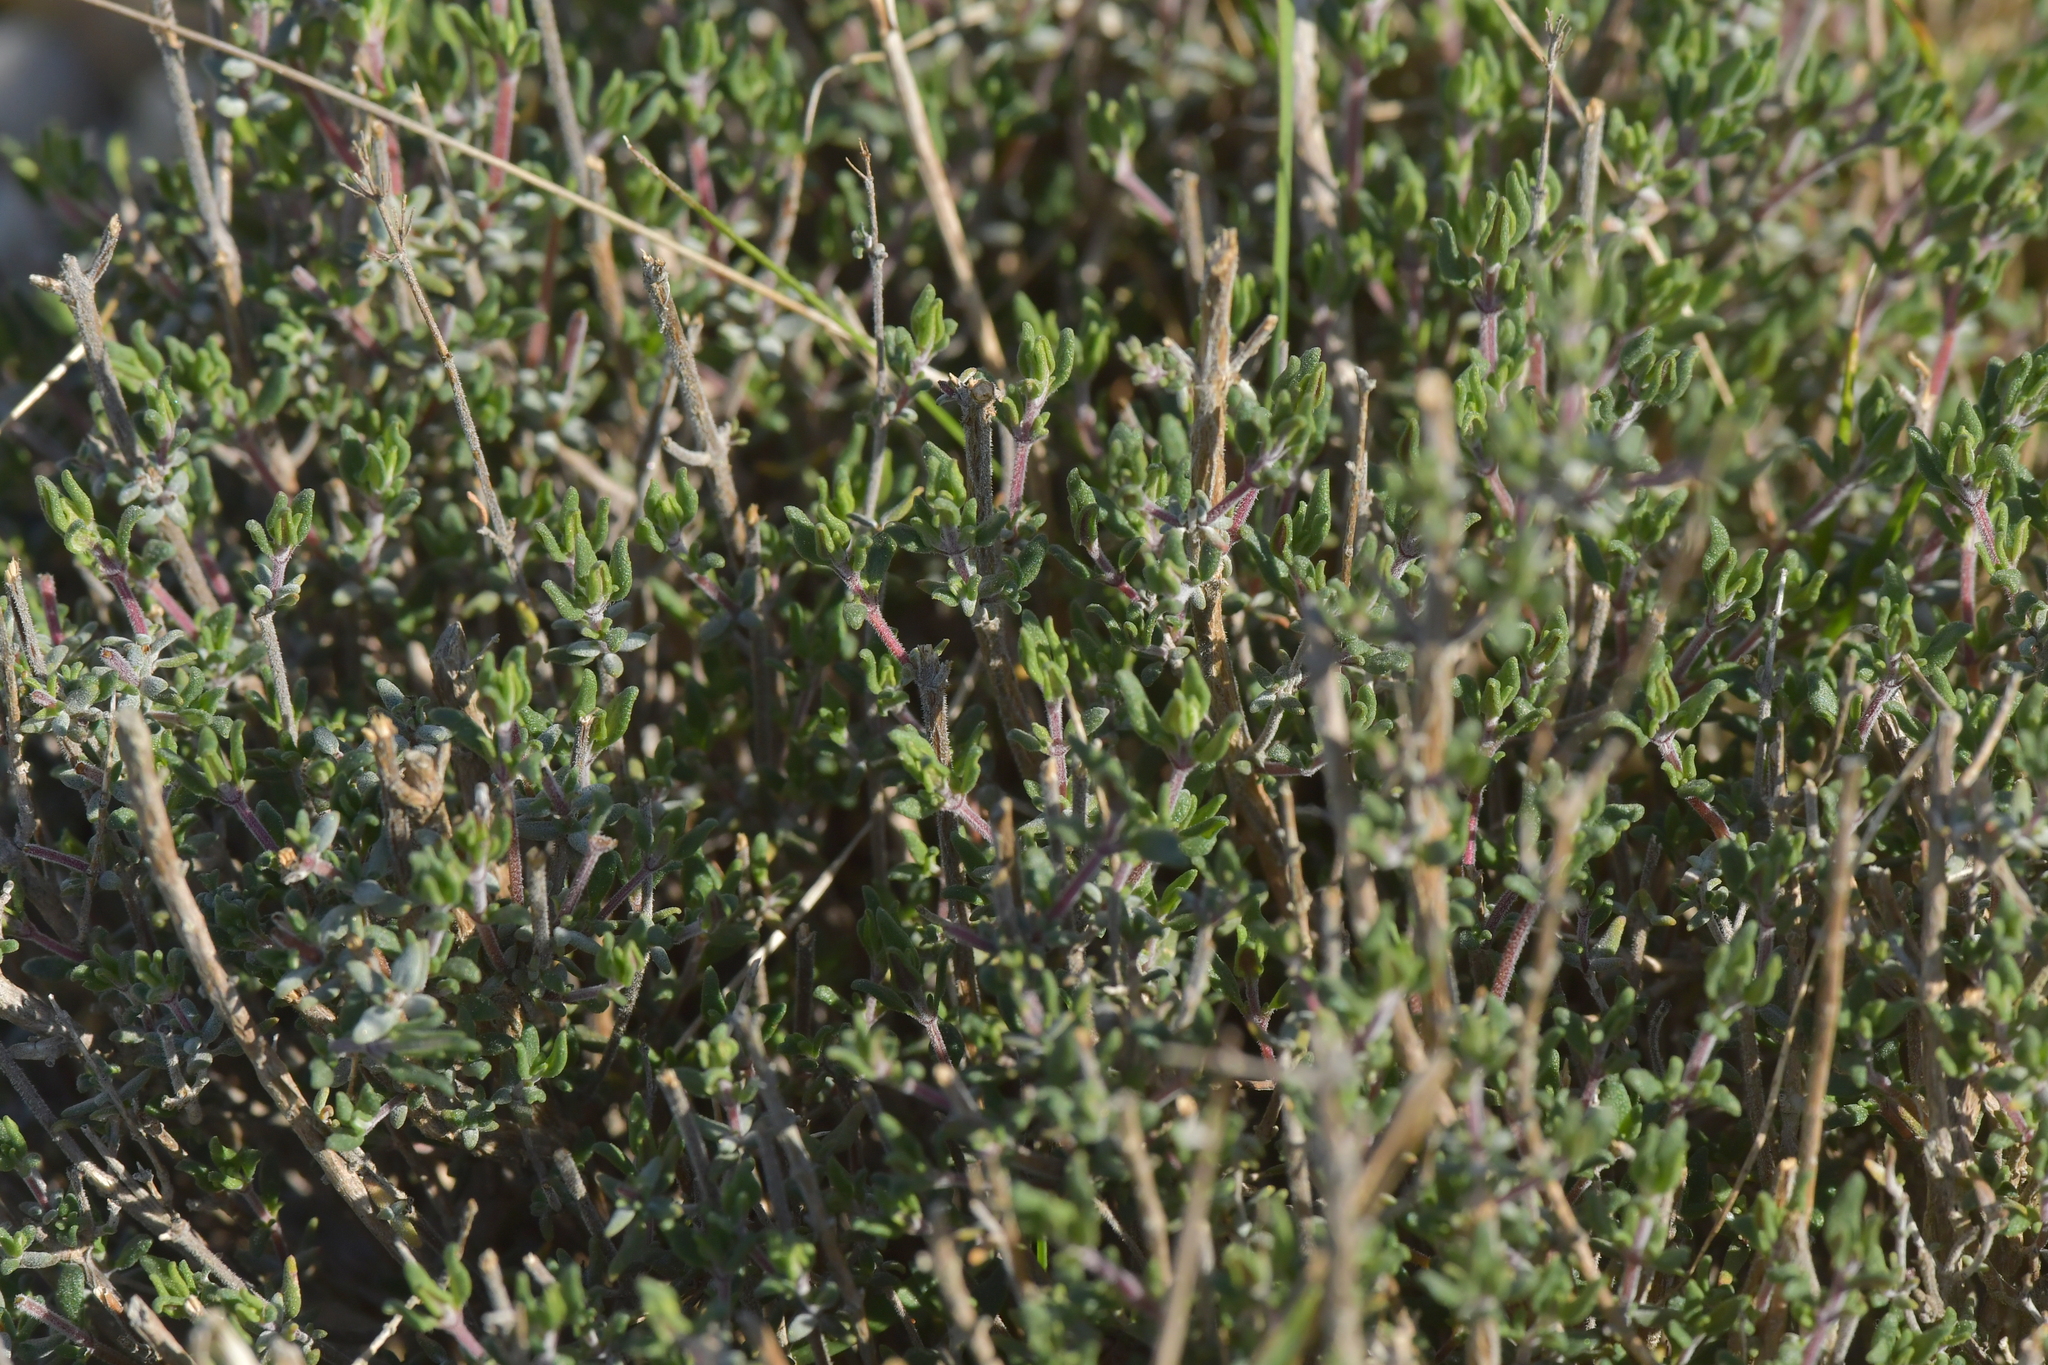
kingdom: Plantae
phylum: Tracheophyta
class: Magnoliopsida
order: Lamiales
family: Lamiaceae
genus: Thymus
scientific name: Thymus vulgaris
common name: Garden thyme
